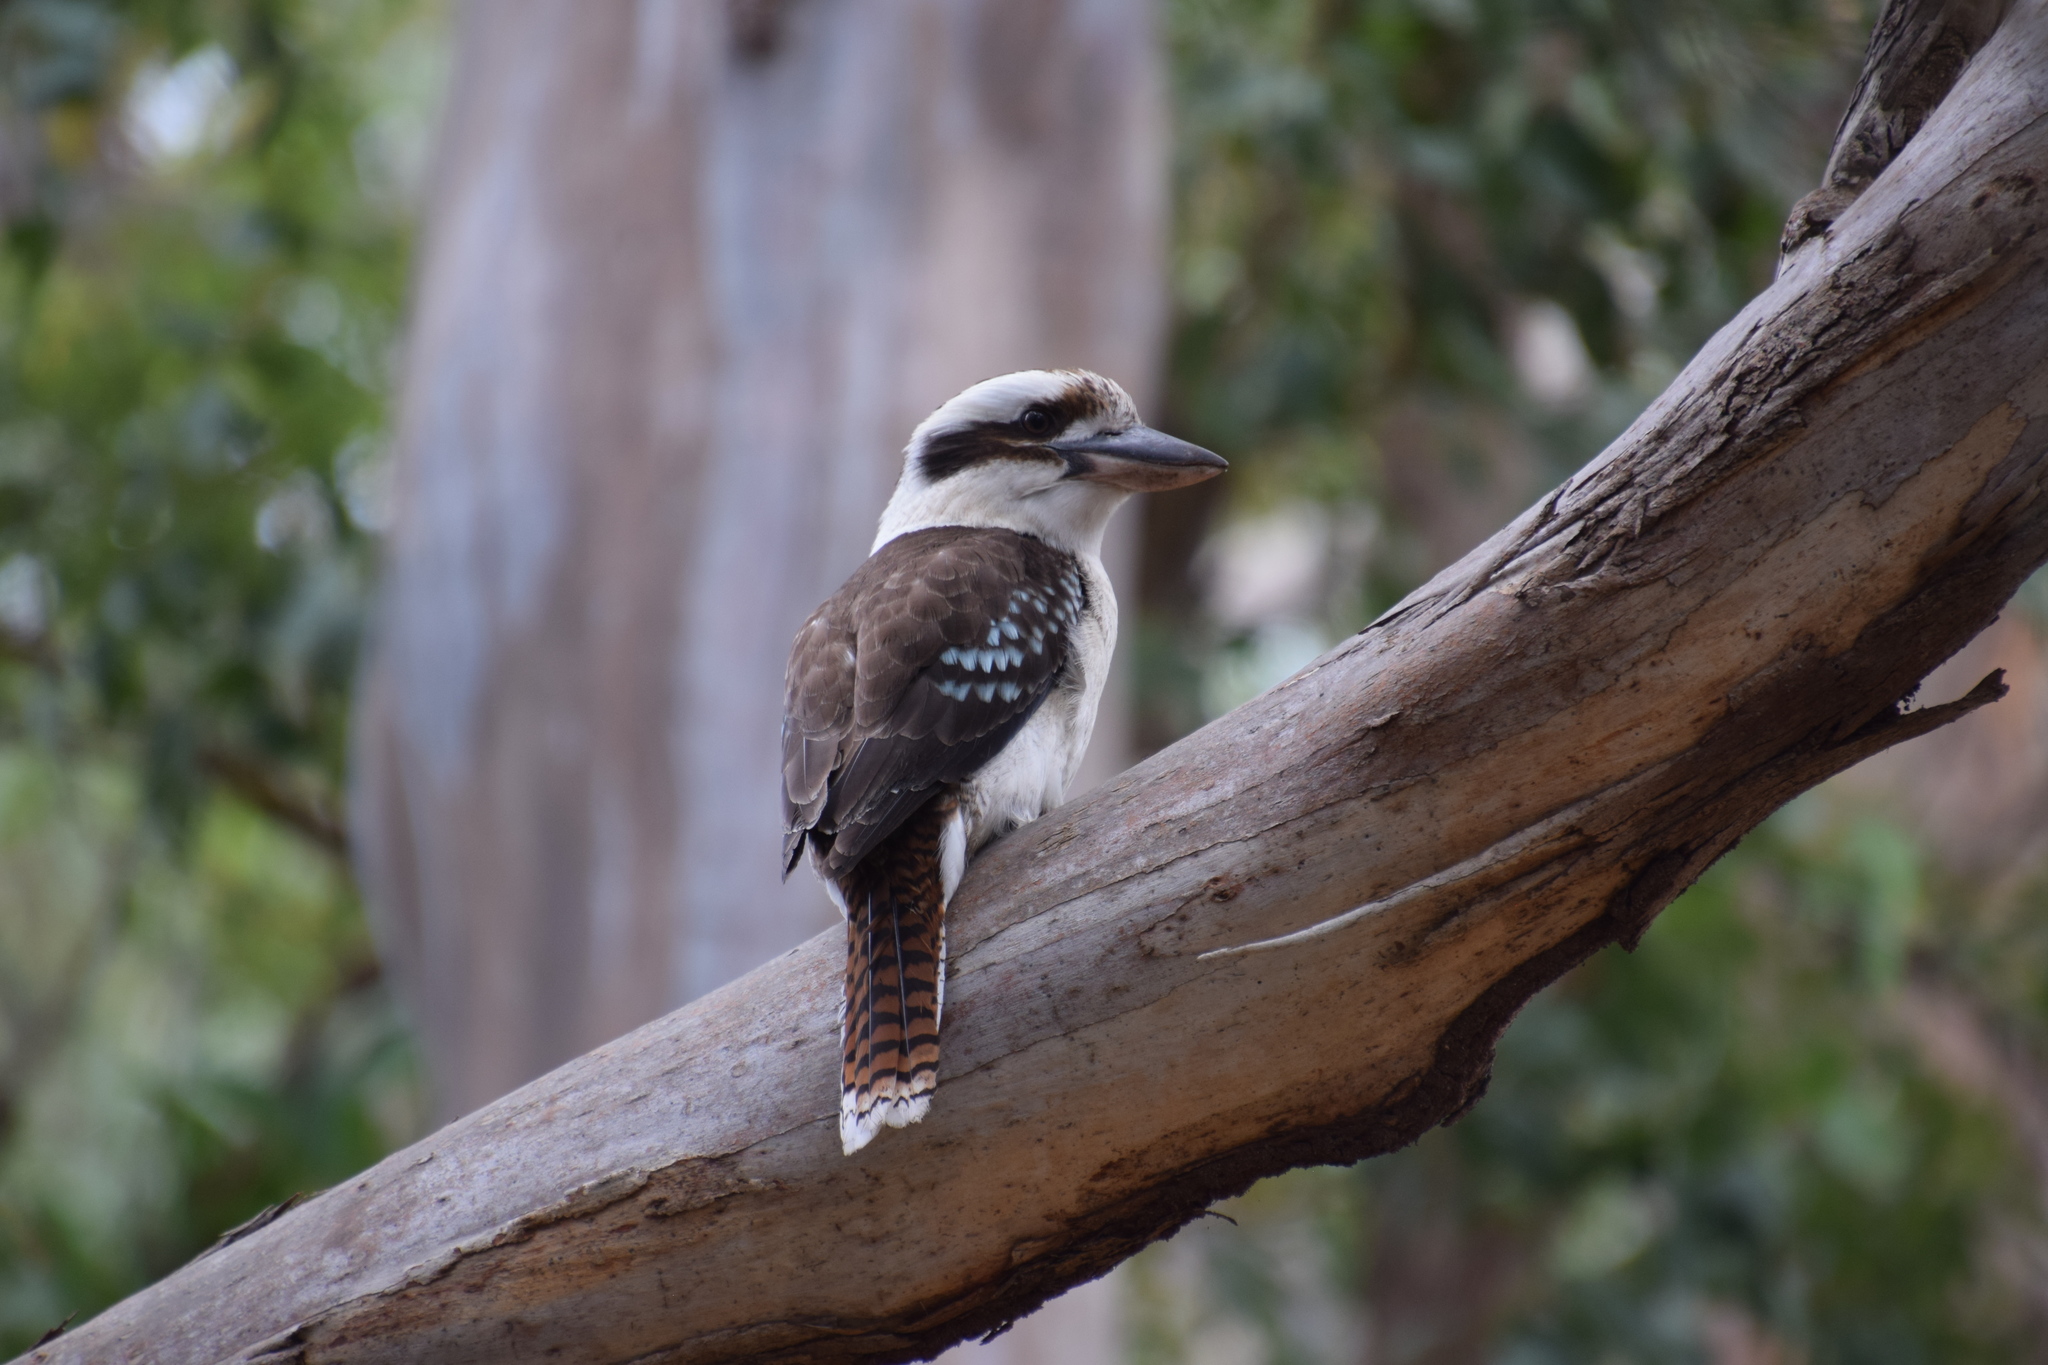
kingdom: Animalia
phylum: Chordata
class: Aves
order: Coraciiformes
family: Alcedinidae
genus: Dacelo
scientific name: Dacelo novaeguineae
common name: Laughing kookaburra
